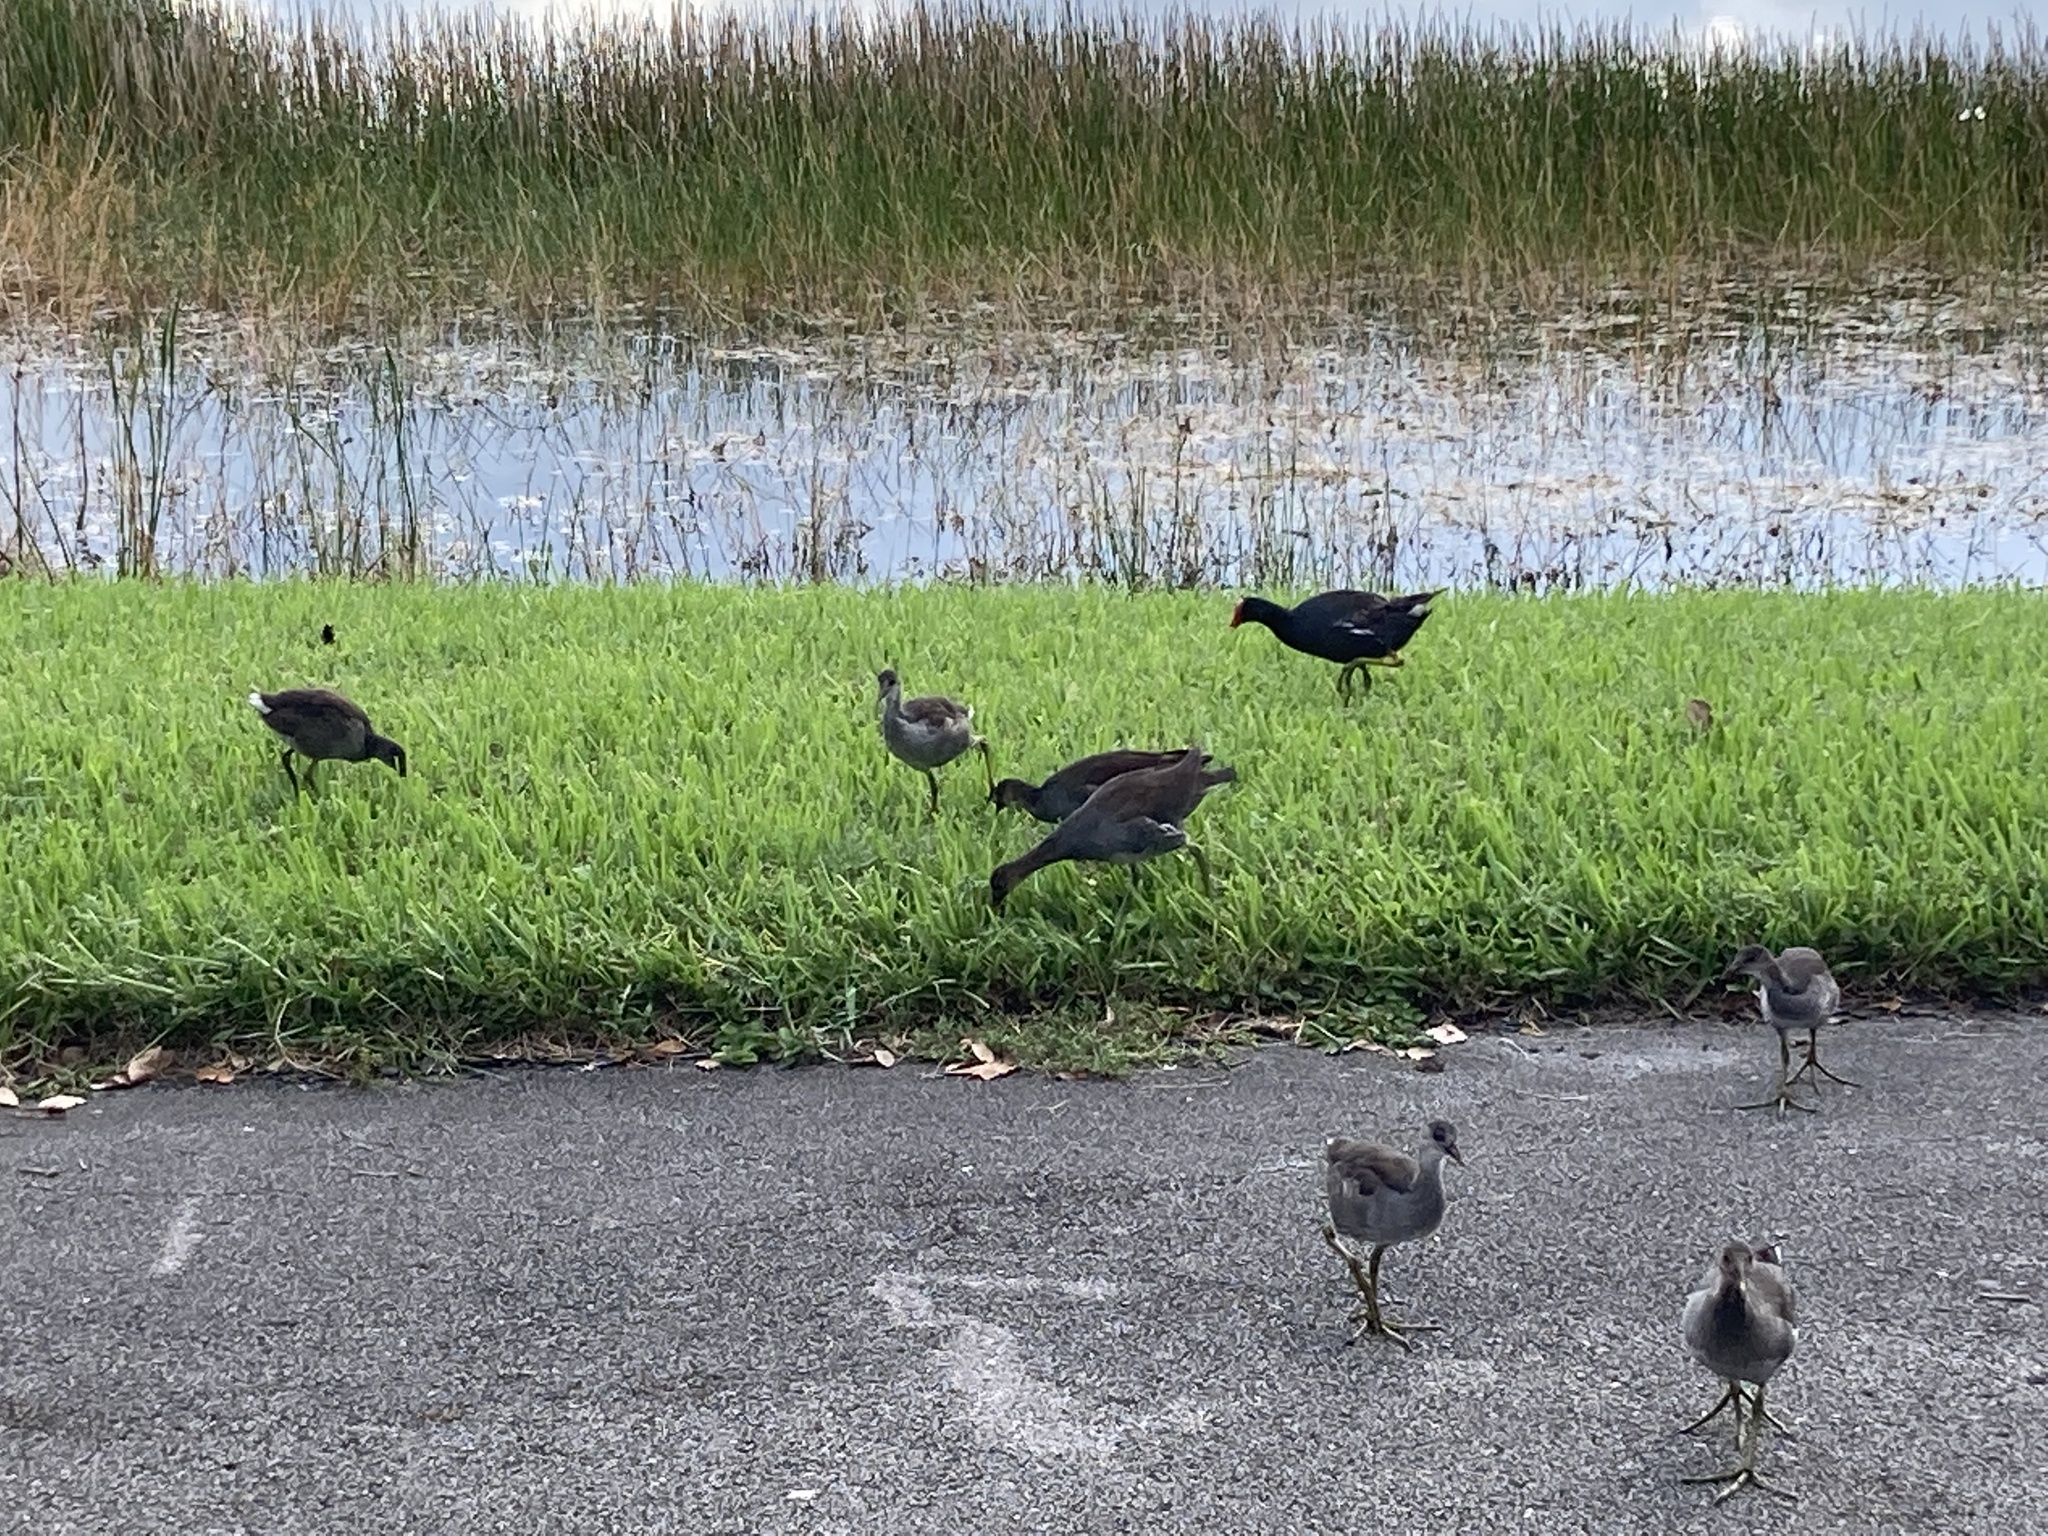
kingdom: Animalia
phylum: Chordata
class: Aves
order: Gruiformes
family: Rallidae
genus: Gallinula
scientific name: Gallinula chloropus
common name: Common moorhen
